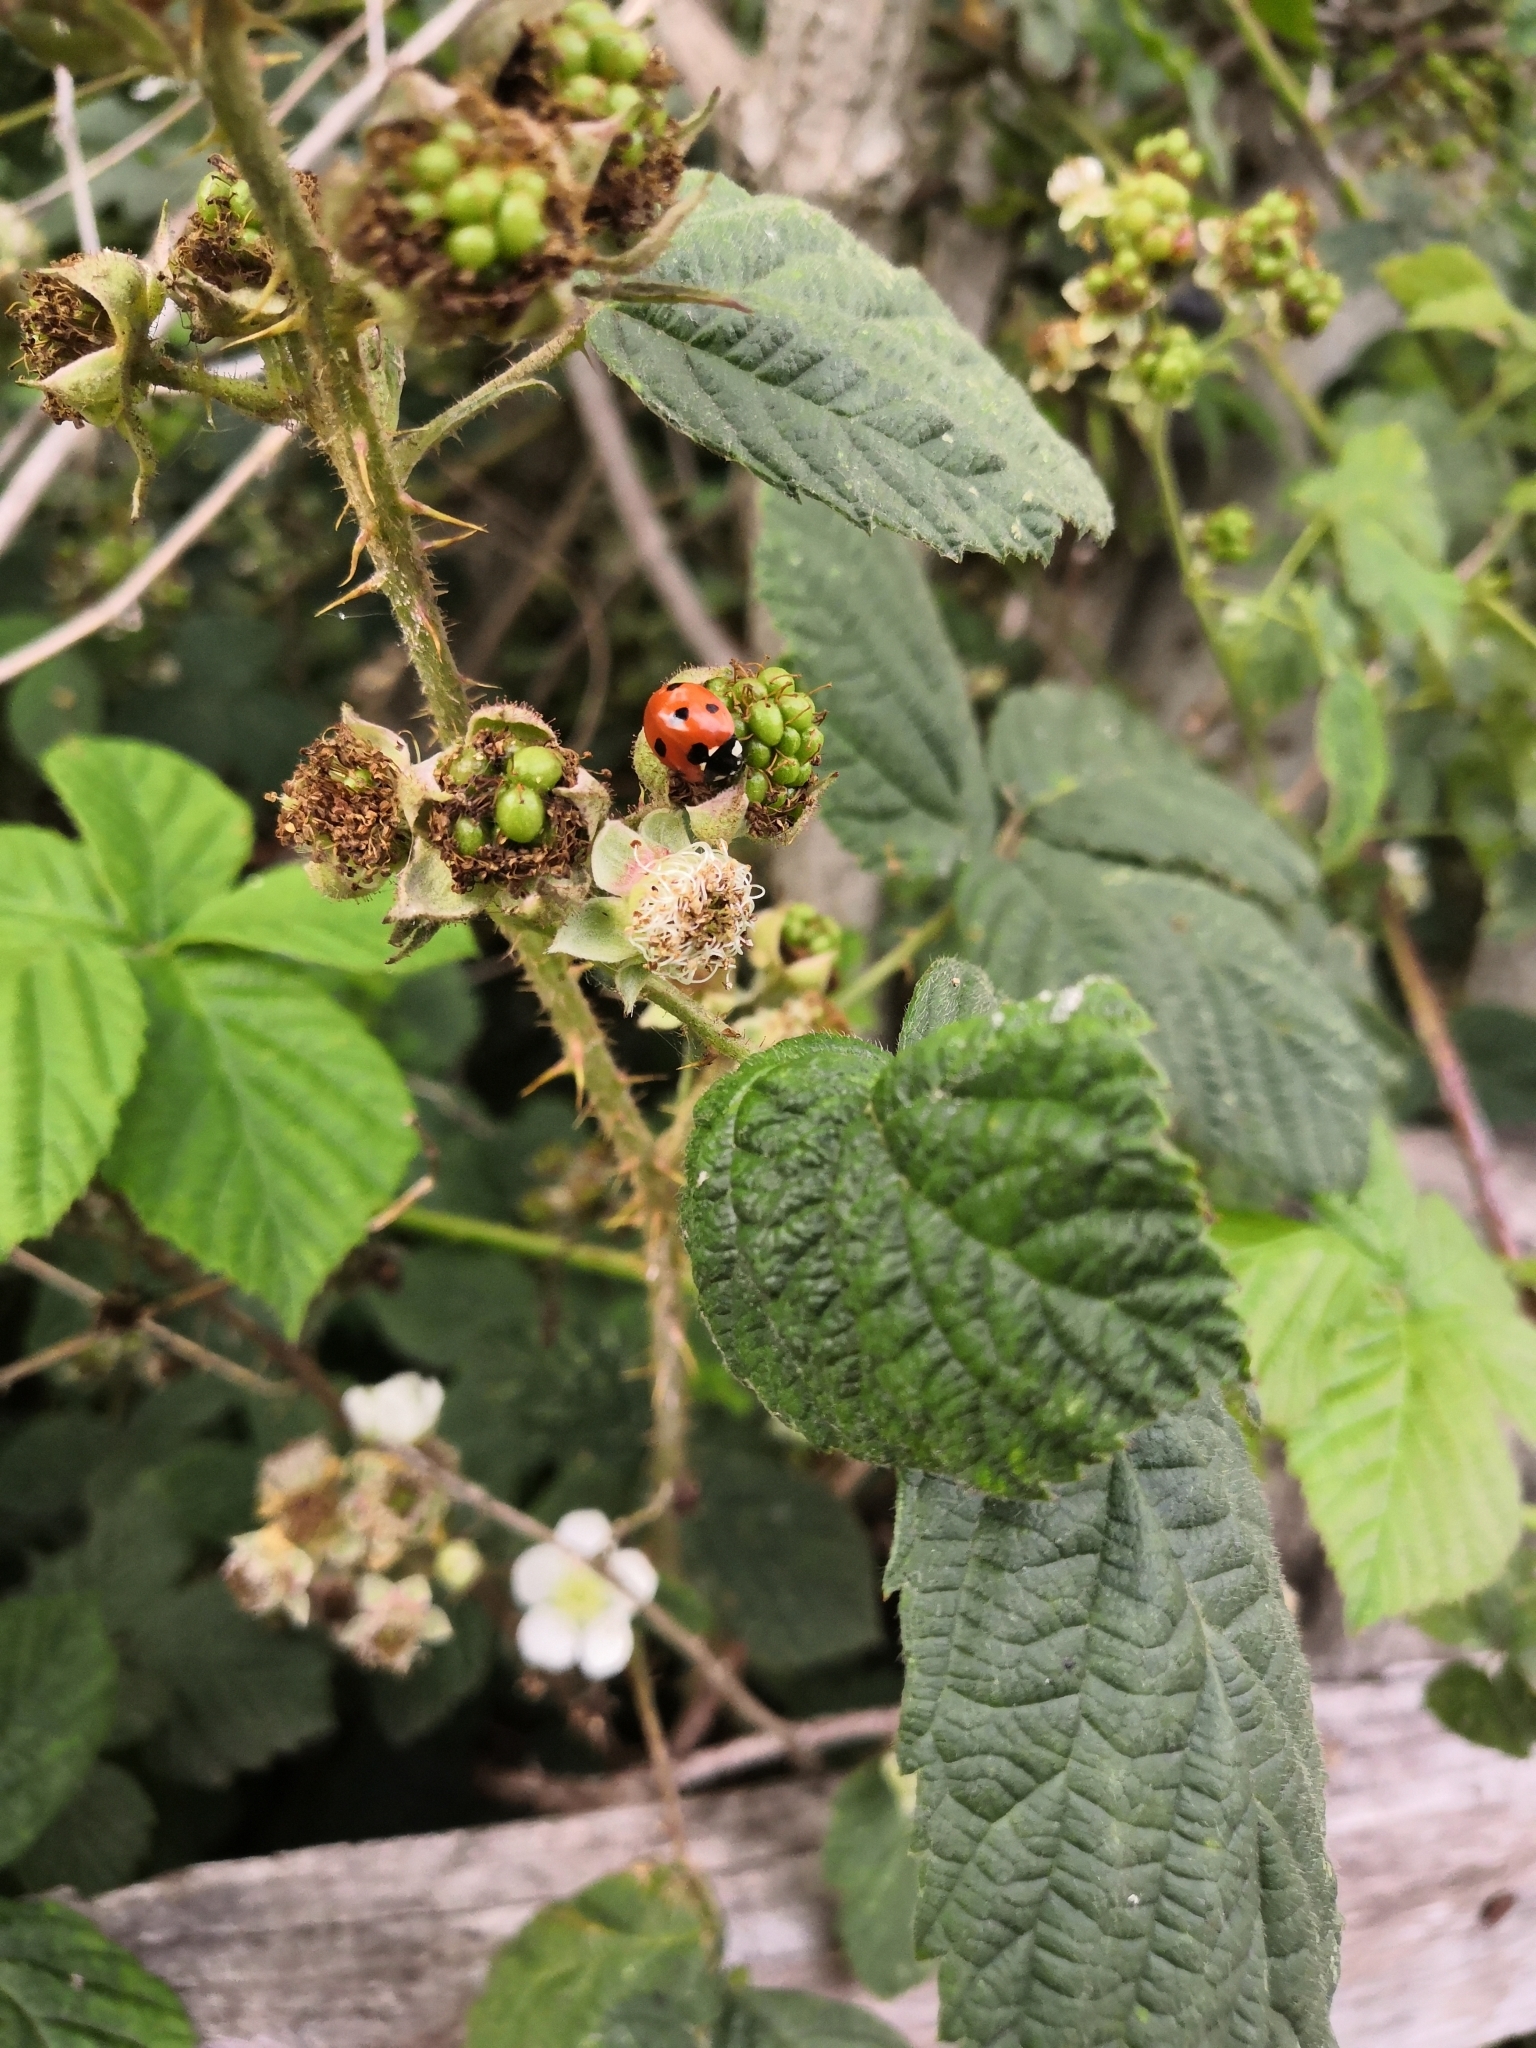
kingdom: Animalia
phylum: Arthropoda
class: Insecta
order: Coleoptera
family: Coccinellidae
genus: Coccinella
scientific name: Coccinella septempunctata
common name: Sevenspotted lady beetle
